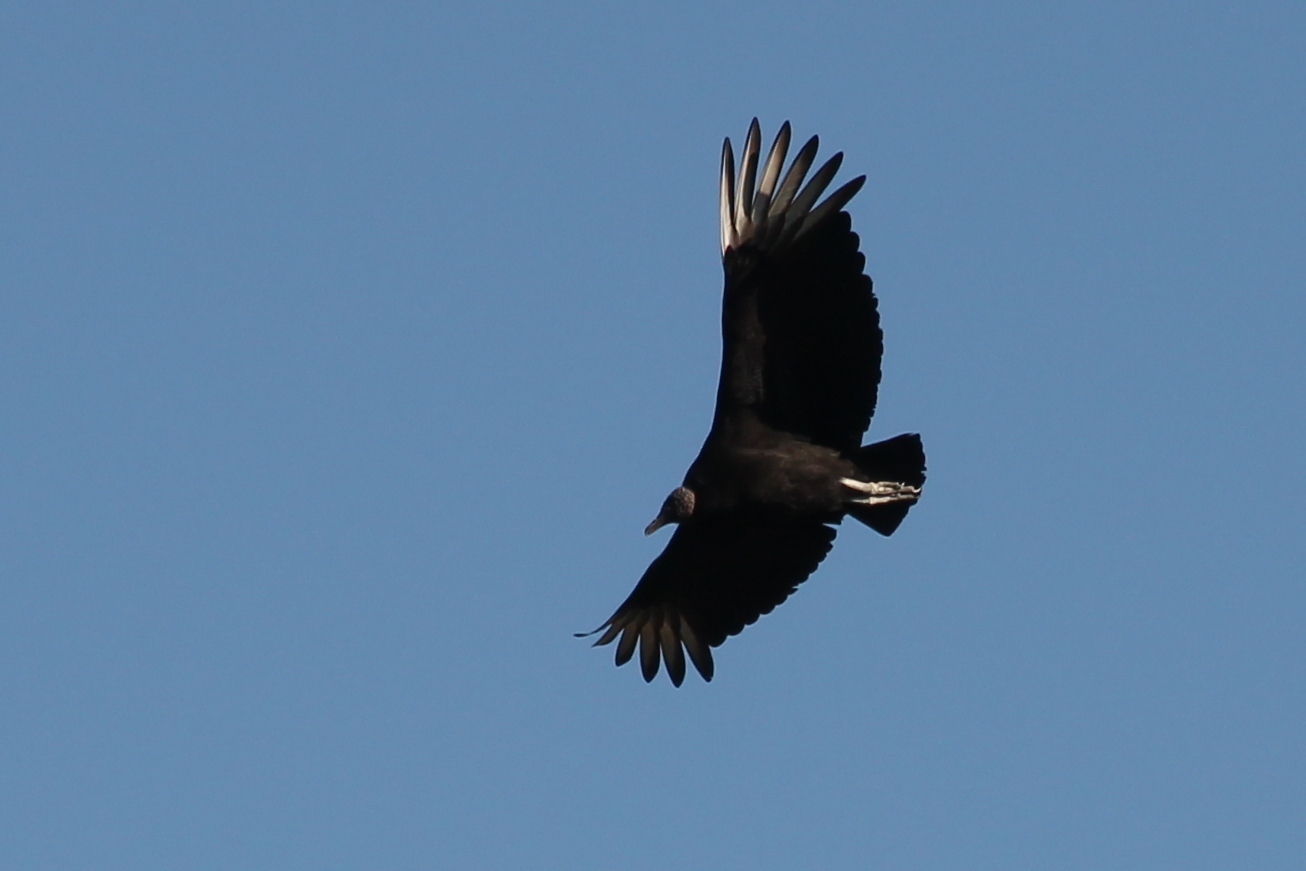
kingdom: Animalia
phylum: Chordata
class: Aves
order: Accipitriformes
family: Cathartidae
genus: Coragyps
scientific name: Coragyps atratus
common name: Black vulture
